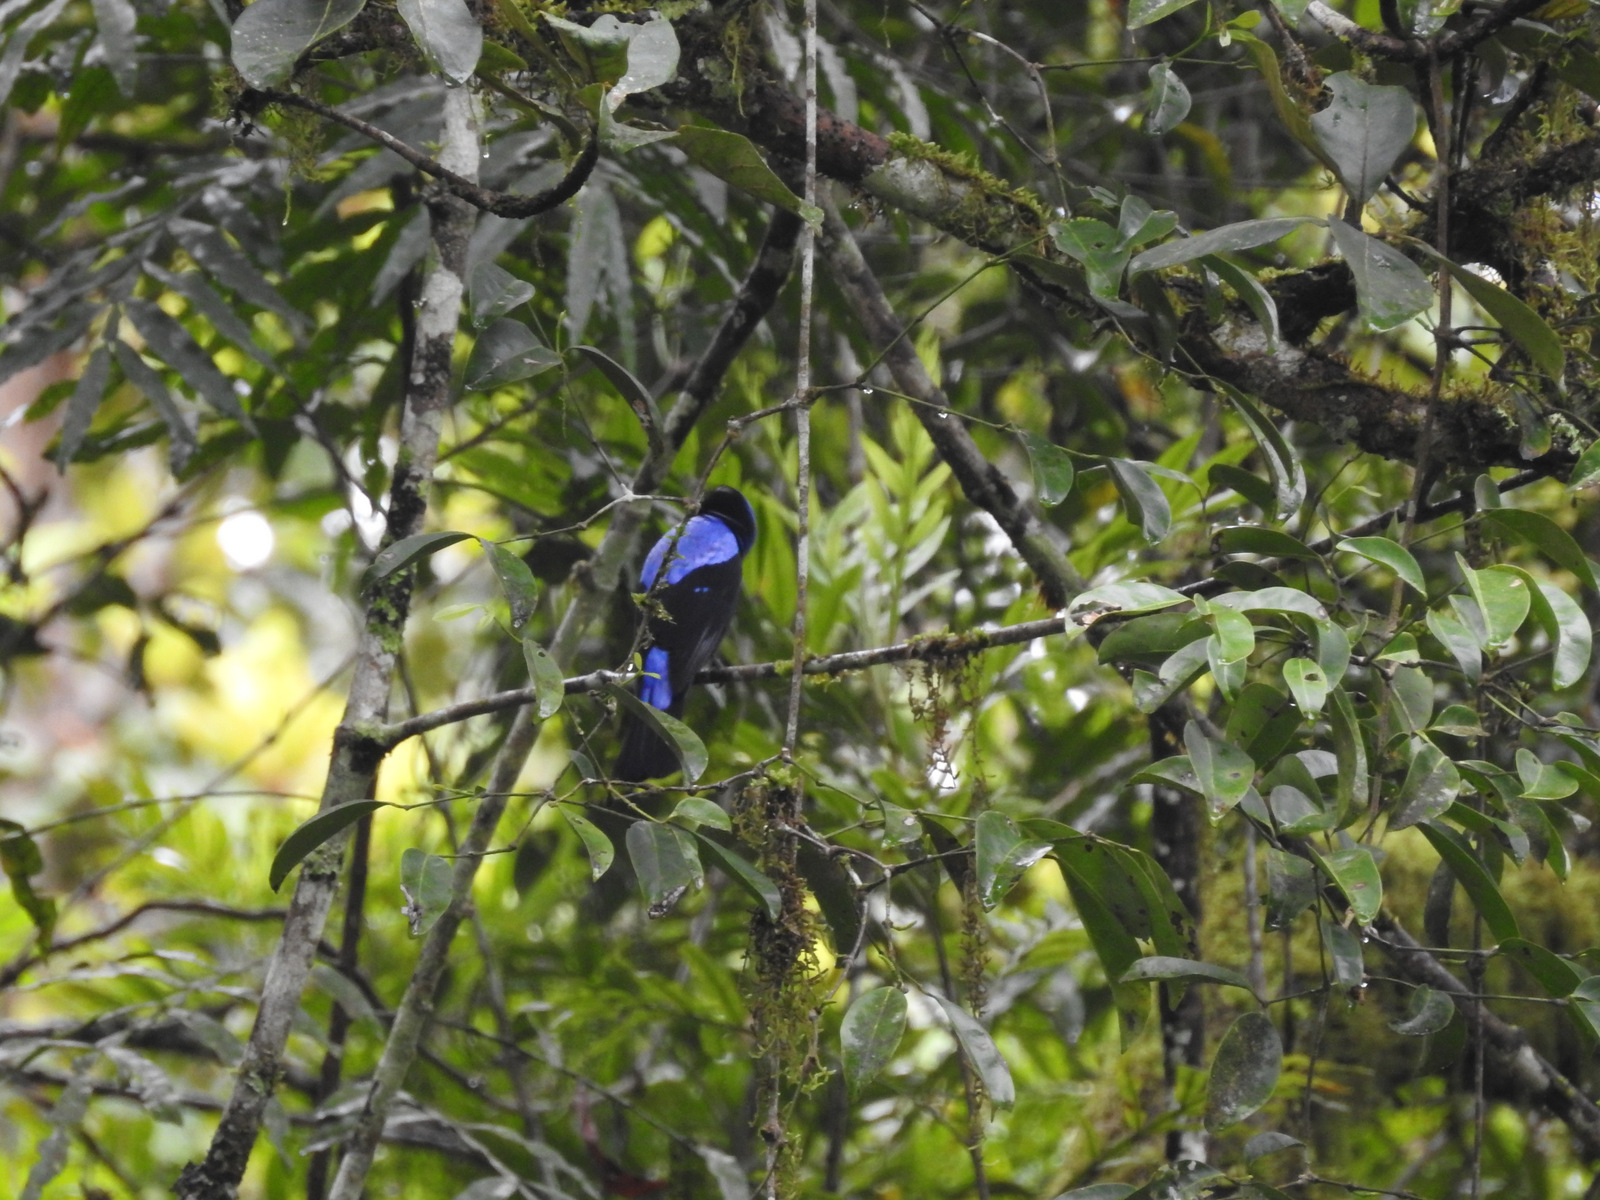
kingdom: Animalia
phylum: Chordata
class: Aves
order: Passeriformes
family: Irenidae
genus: Irena
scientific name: Irena puella
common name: Asian fairy-bluebird
